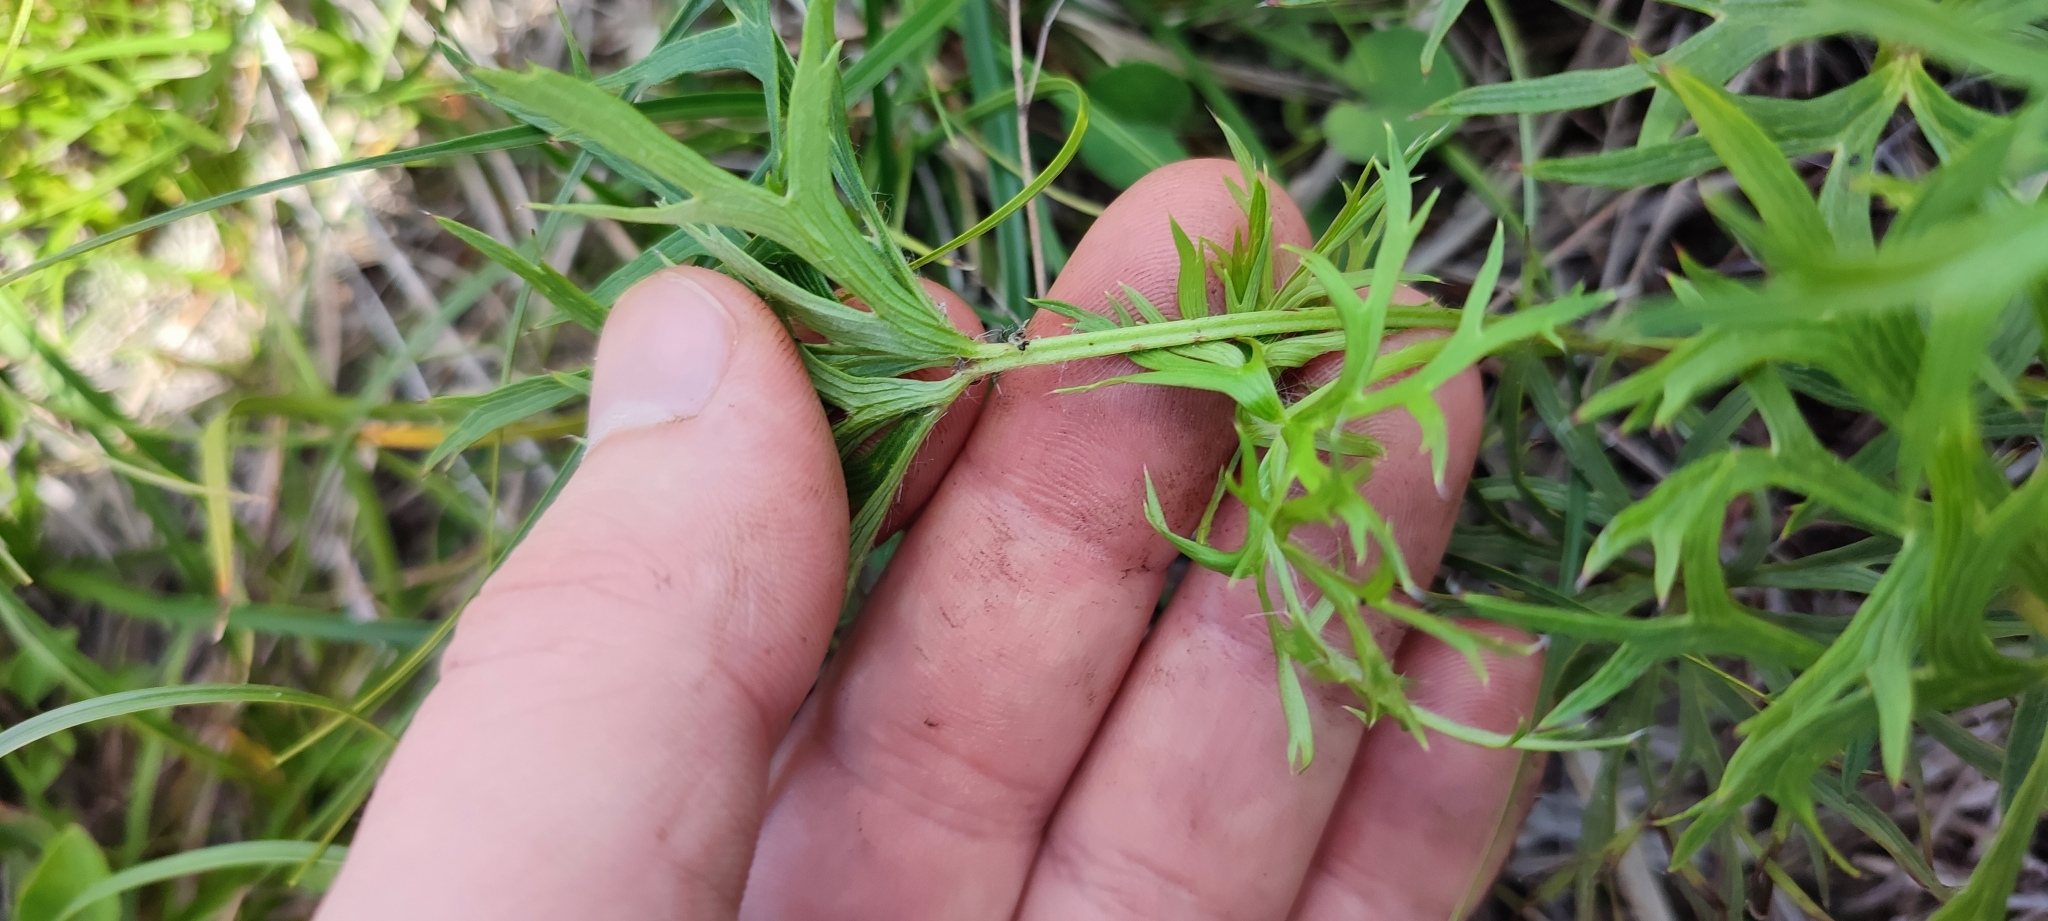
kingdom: Plantae
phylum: Tracheophyta
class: Magnoliopsida
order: Ranunculales
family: Ranunculaceae
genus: Pulsatilla
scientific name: Pulsatilla patens
